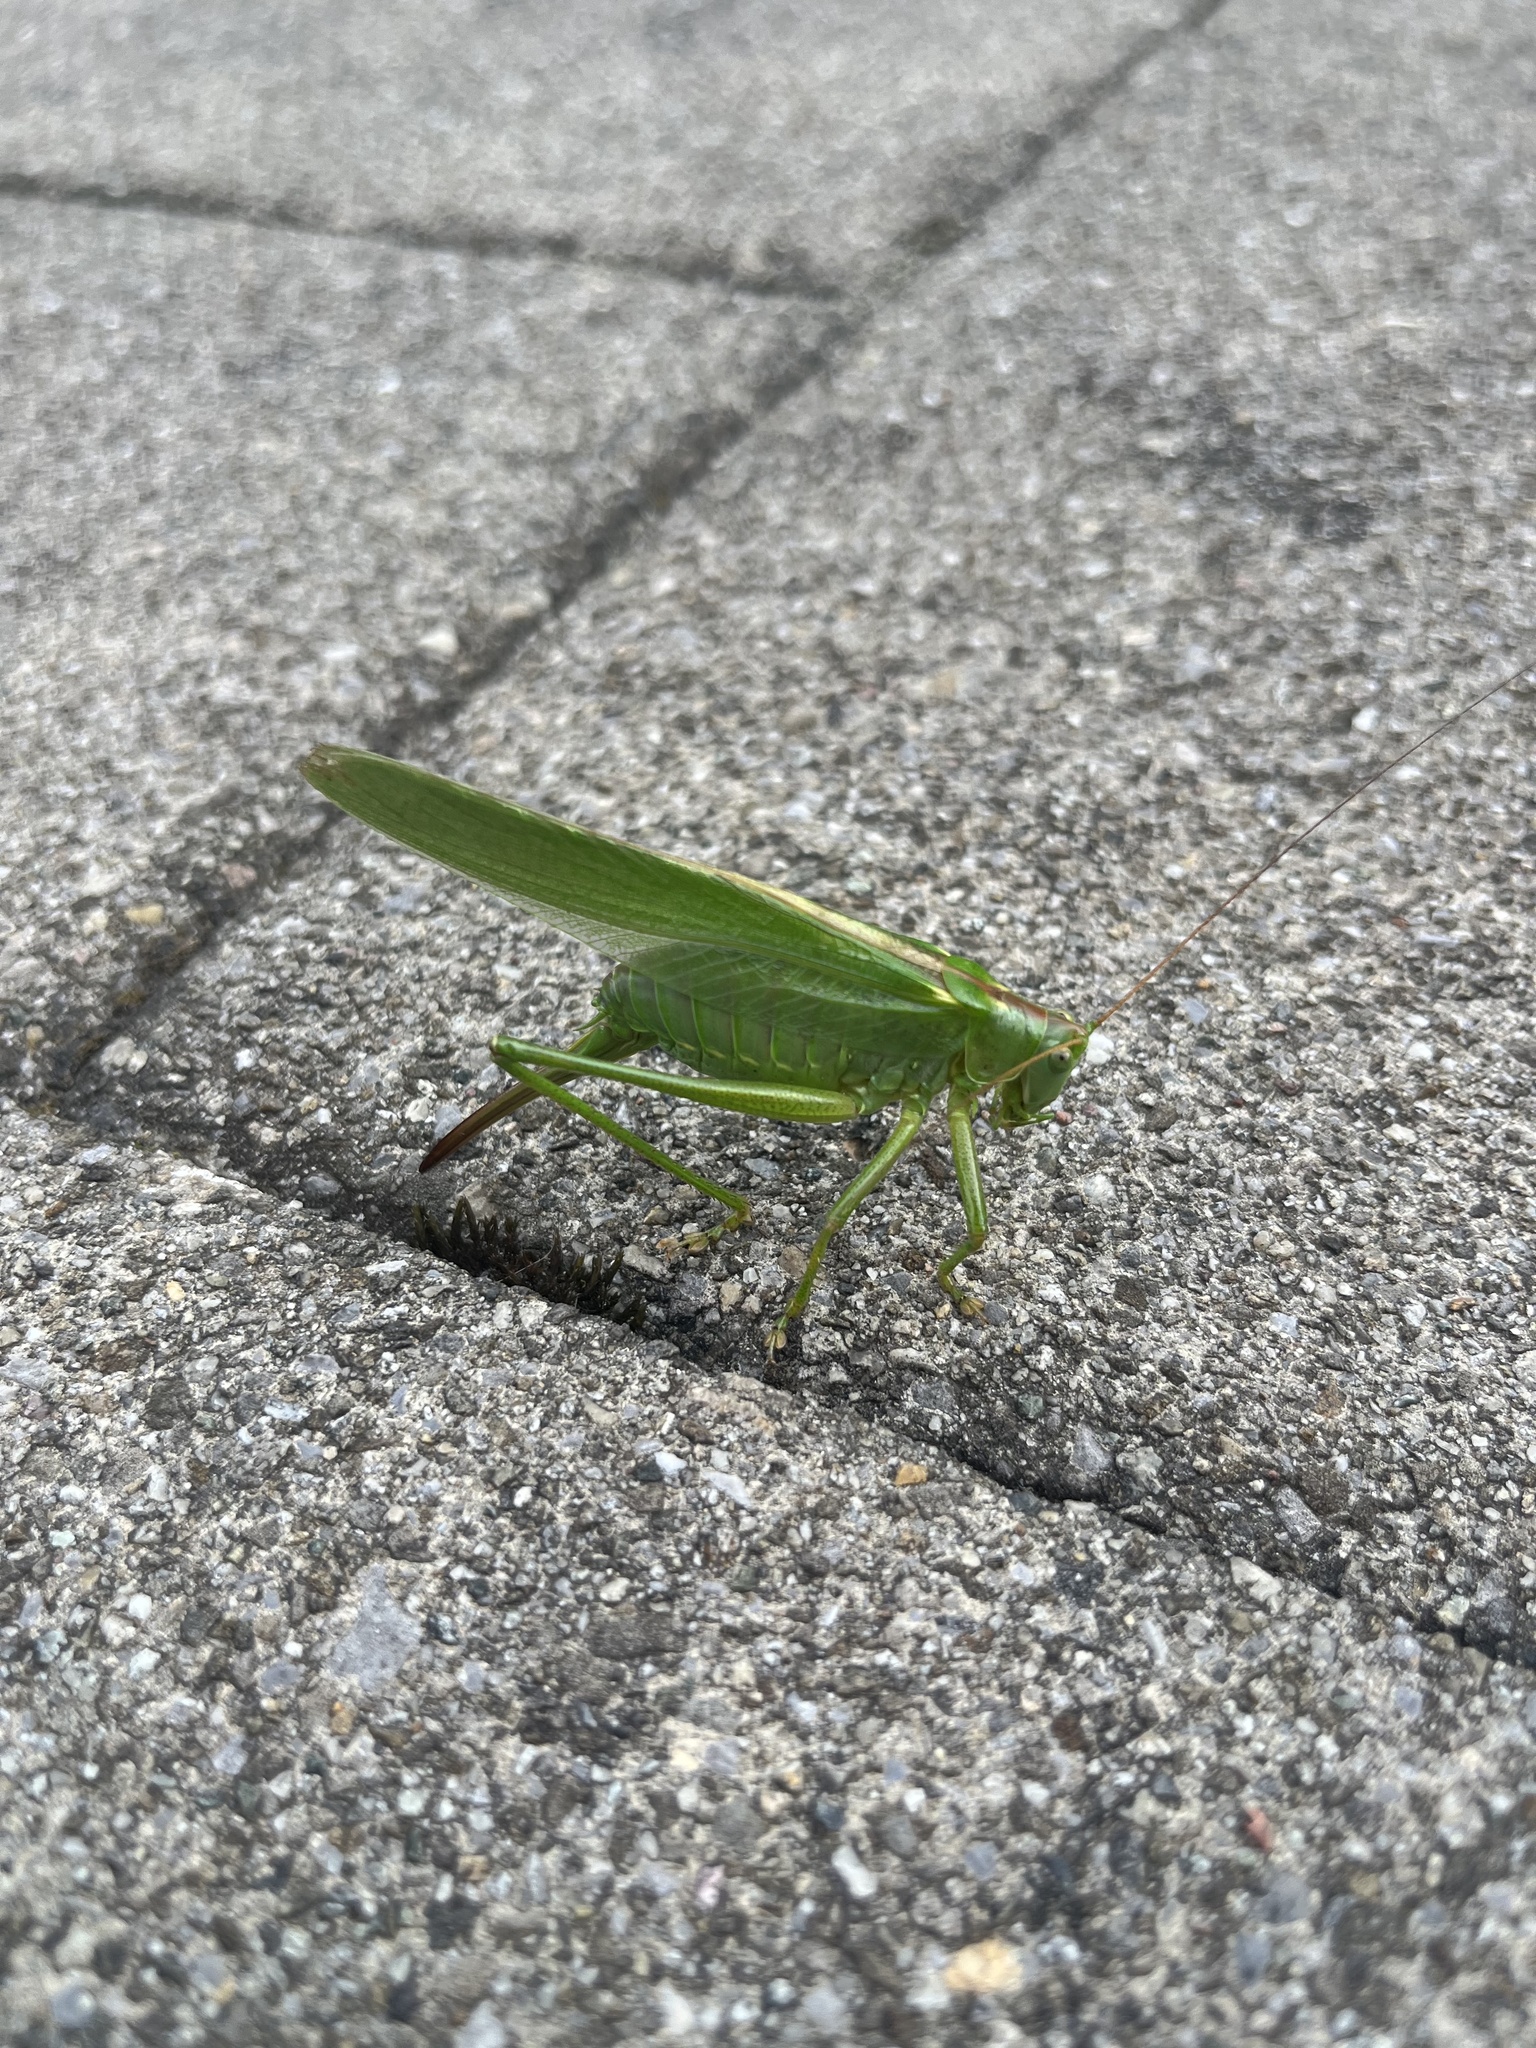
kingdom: Animalia
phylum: Arthropoda
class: Insecta
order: Orthoptera
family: Tettigoniidae
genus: Tettigonia
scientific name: Tettigonia viridissima
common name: Great green bush-cricket
